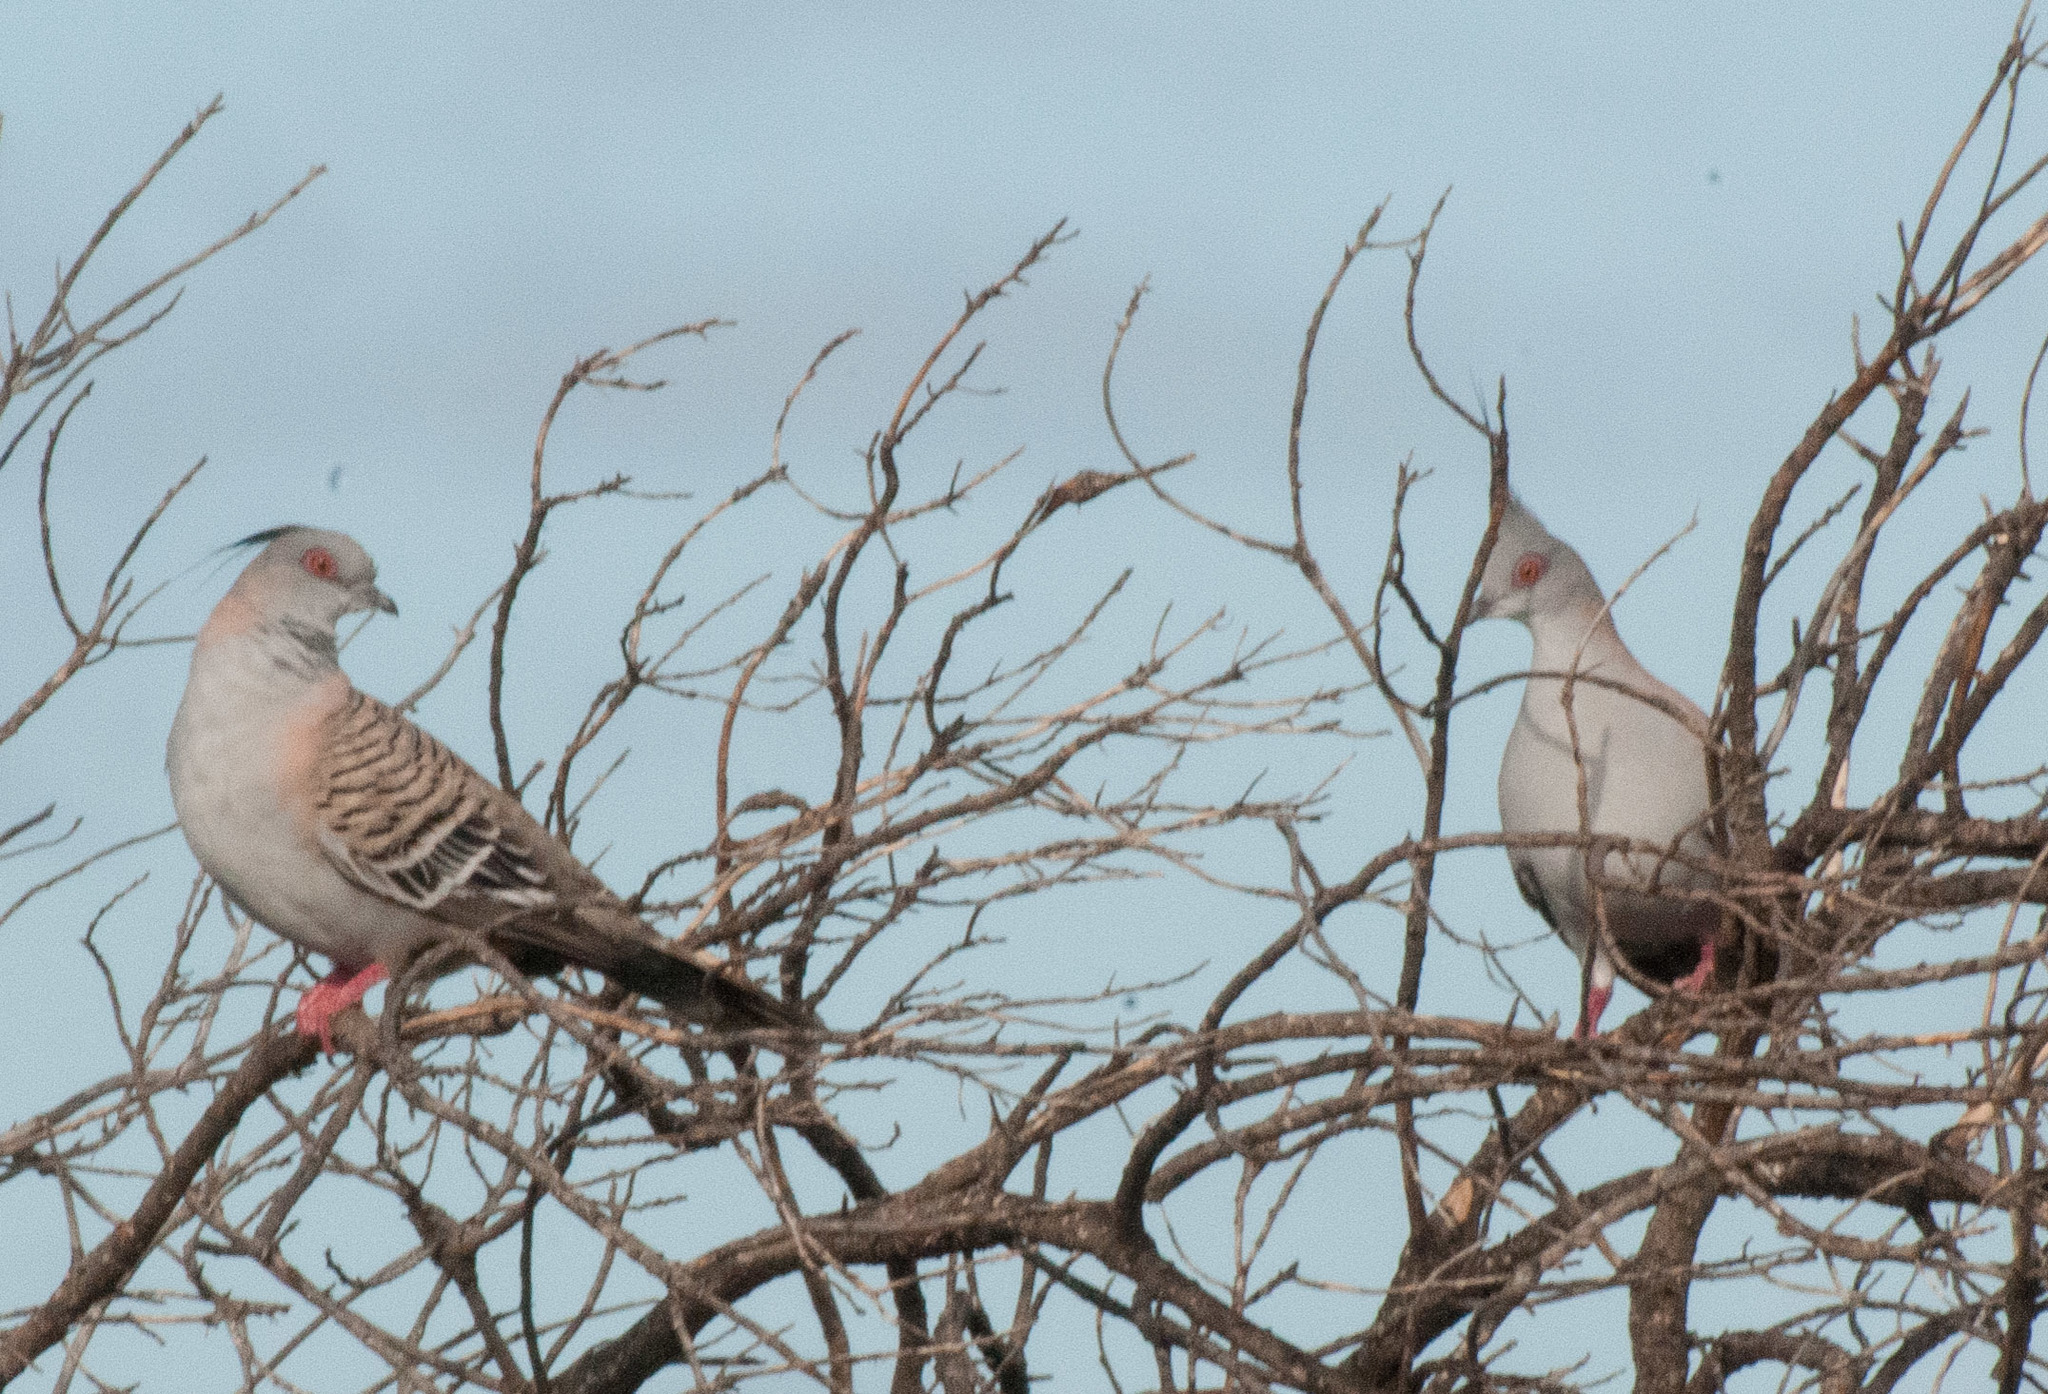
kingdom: Animalia
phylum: Chordata
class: Aves
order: Columbiformes
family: Columbidae
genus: Ocyphaps
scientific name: Ocyphaps lophotes
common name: Crested pigeon
